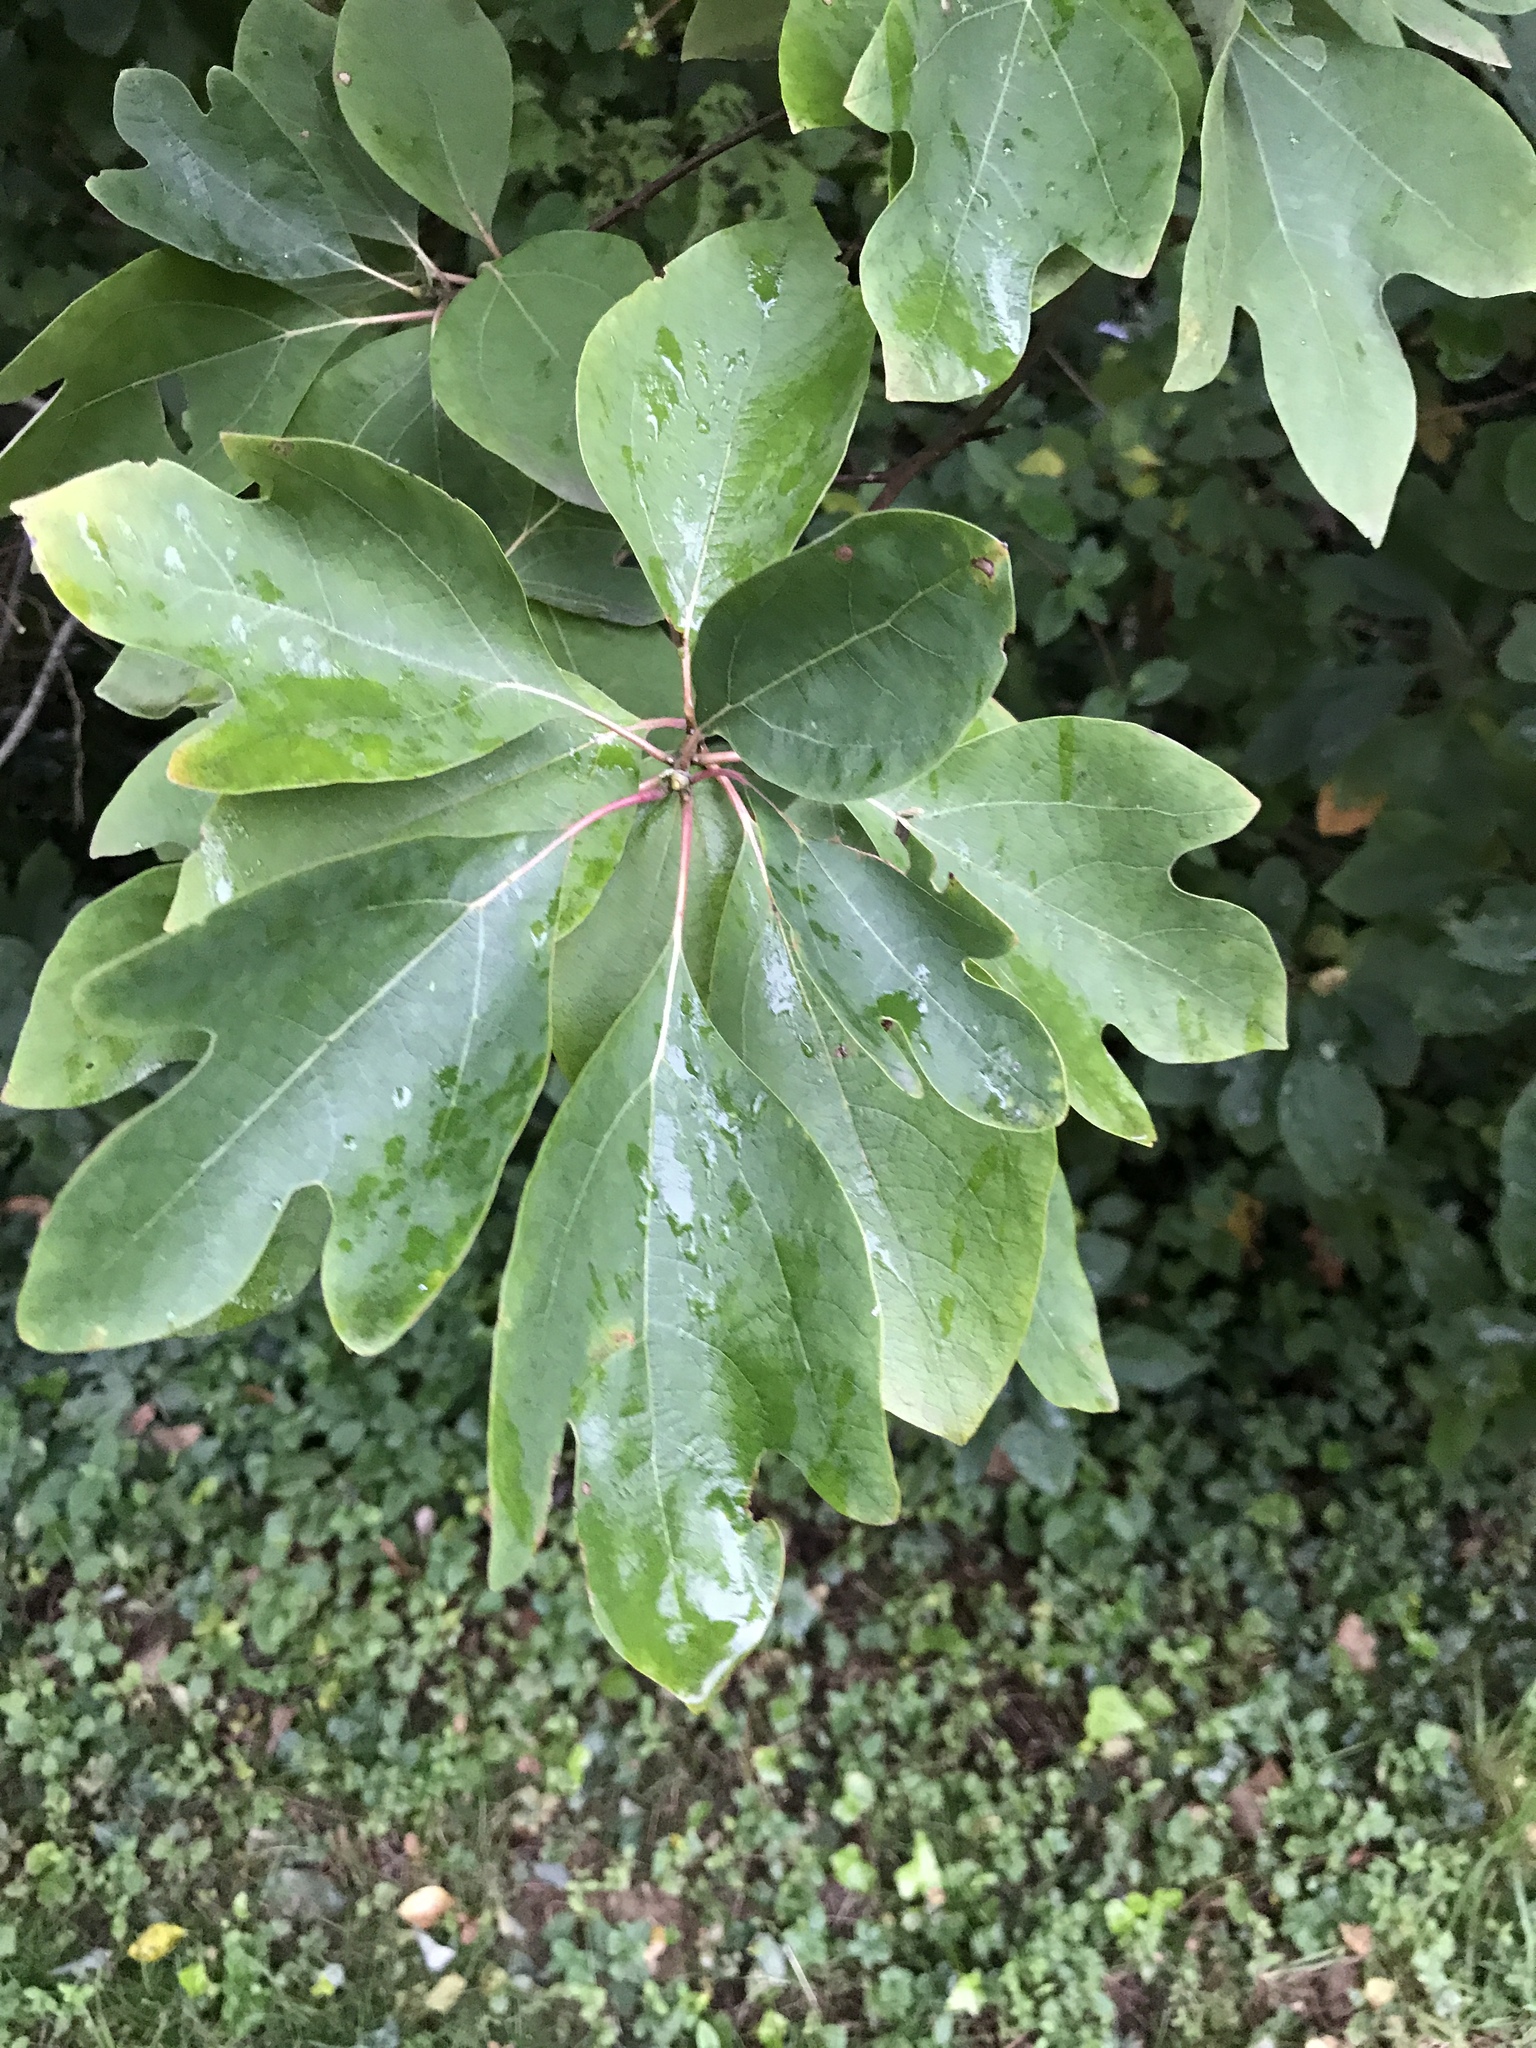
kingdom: Plantae
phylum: Tracheophyta
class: Magnoliopsida
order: Laurales
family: Lauraceae
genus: Sassafras
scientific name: Sassafras albidum
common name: Sassafras
